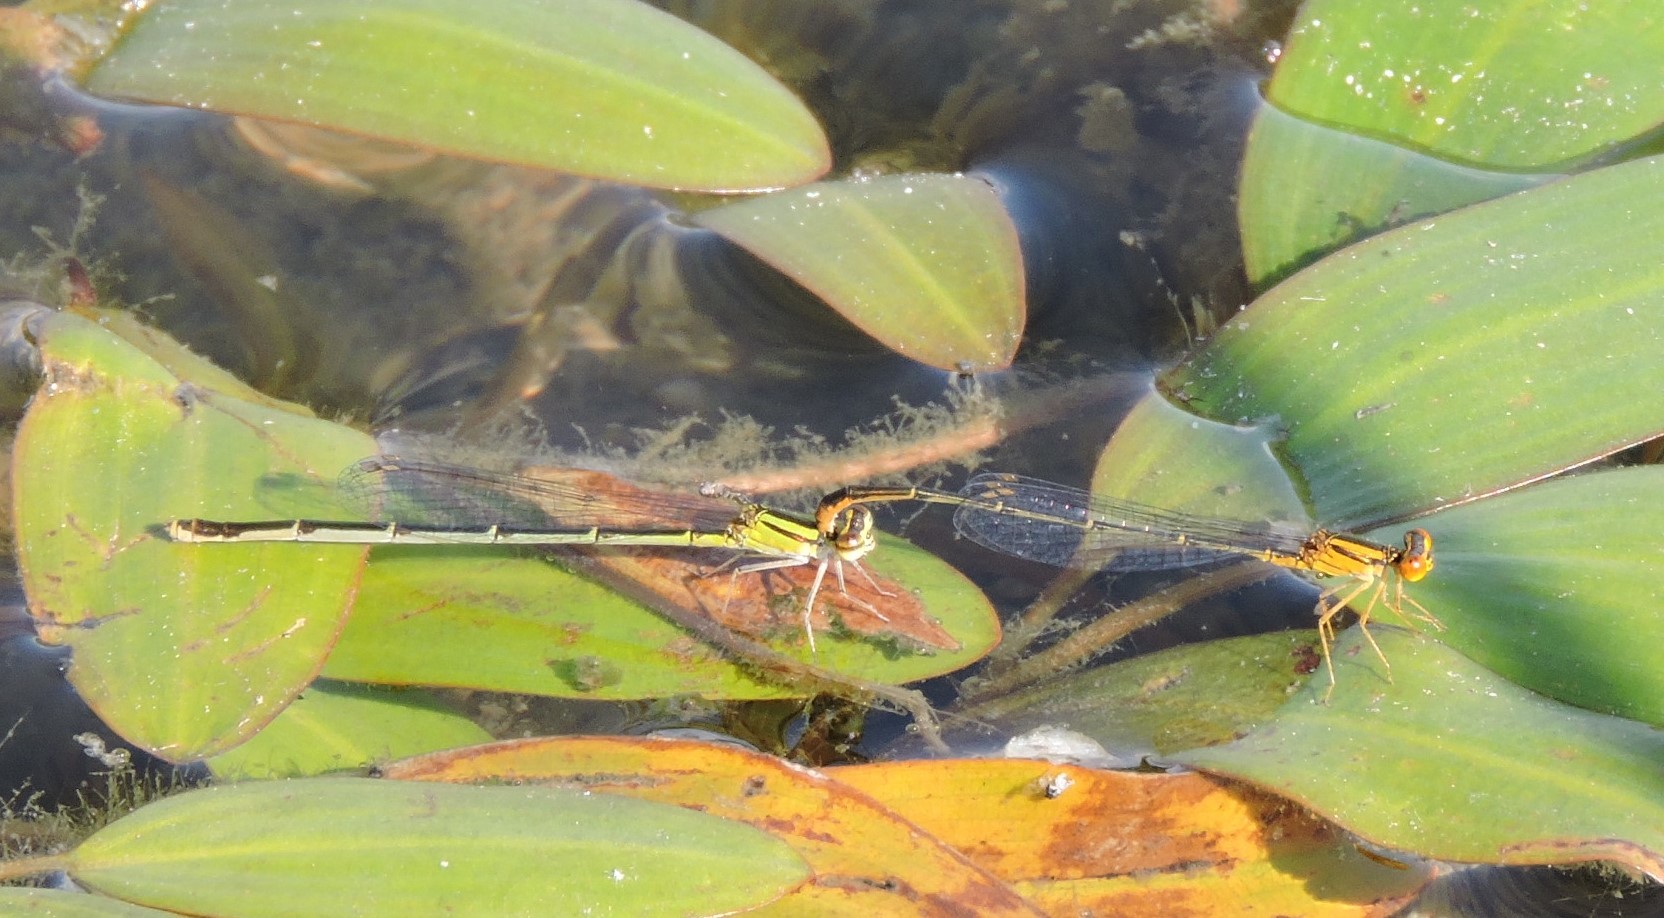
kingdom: Animalia
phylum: Arthropoda
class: Insecta
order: Odonata
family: Coenagrionidae
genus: Enallagma
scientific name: Enallagma signatum
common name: Orange bluet
